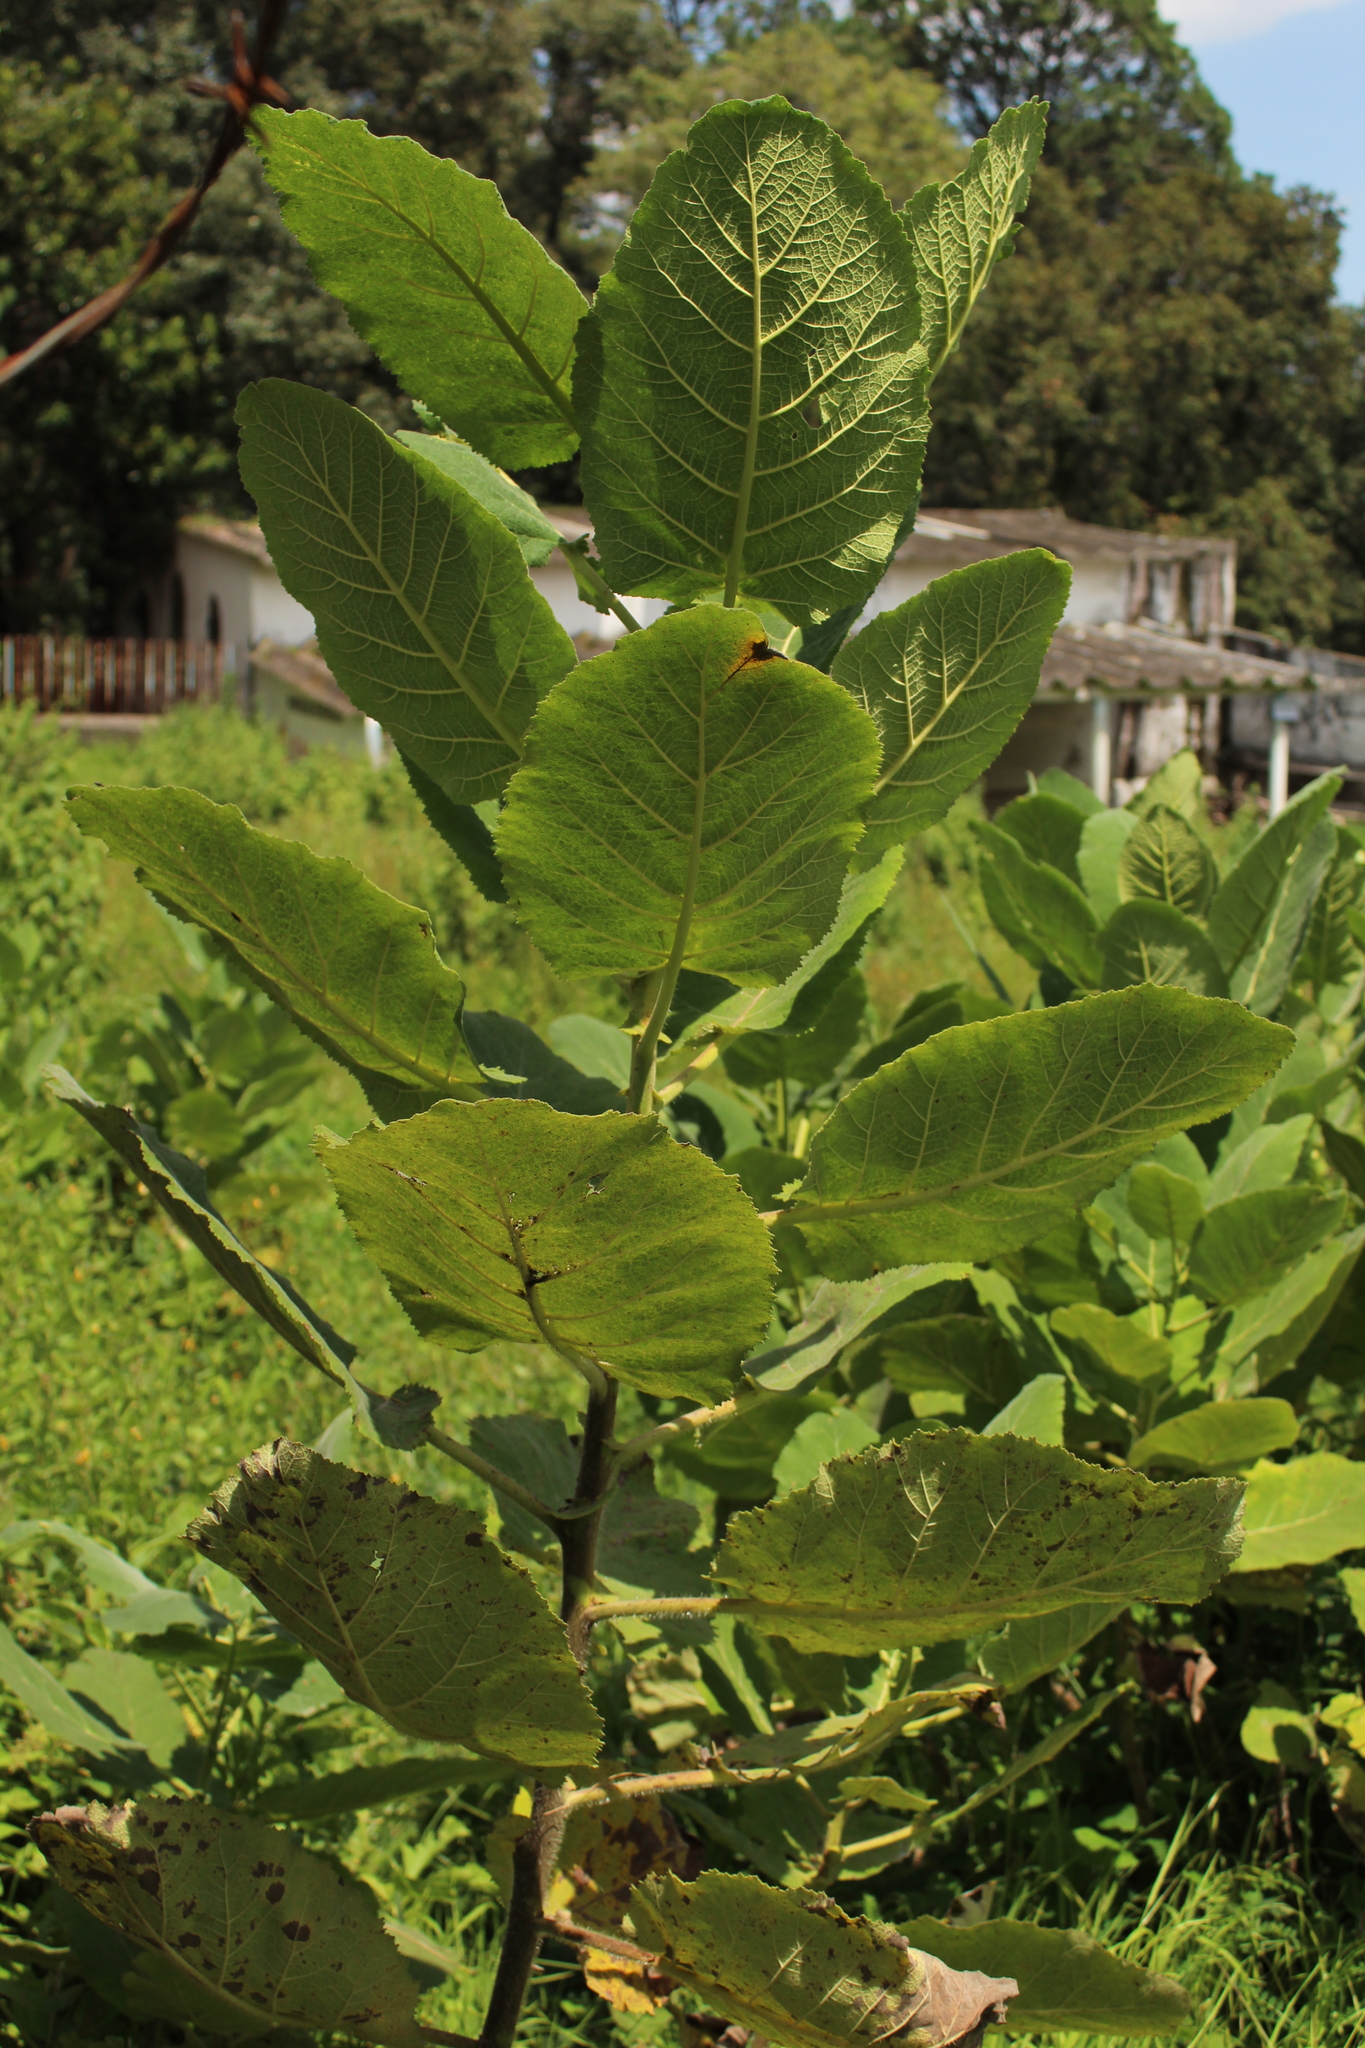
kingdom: Plantae
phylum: Tracheophyta
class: Magnoliopsida
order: Boraginales
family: Namaceae
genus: Wigandia
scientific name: Wigandia urens
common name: Caracus wigandia
